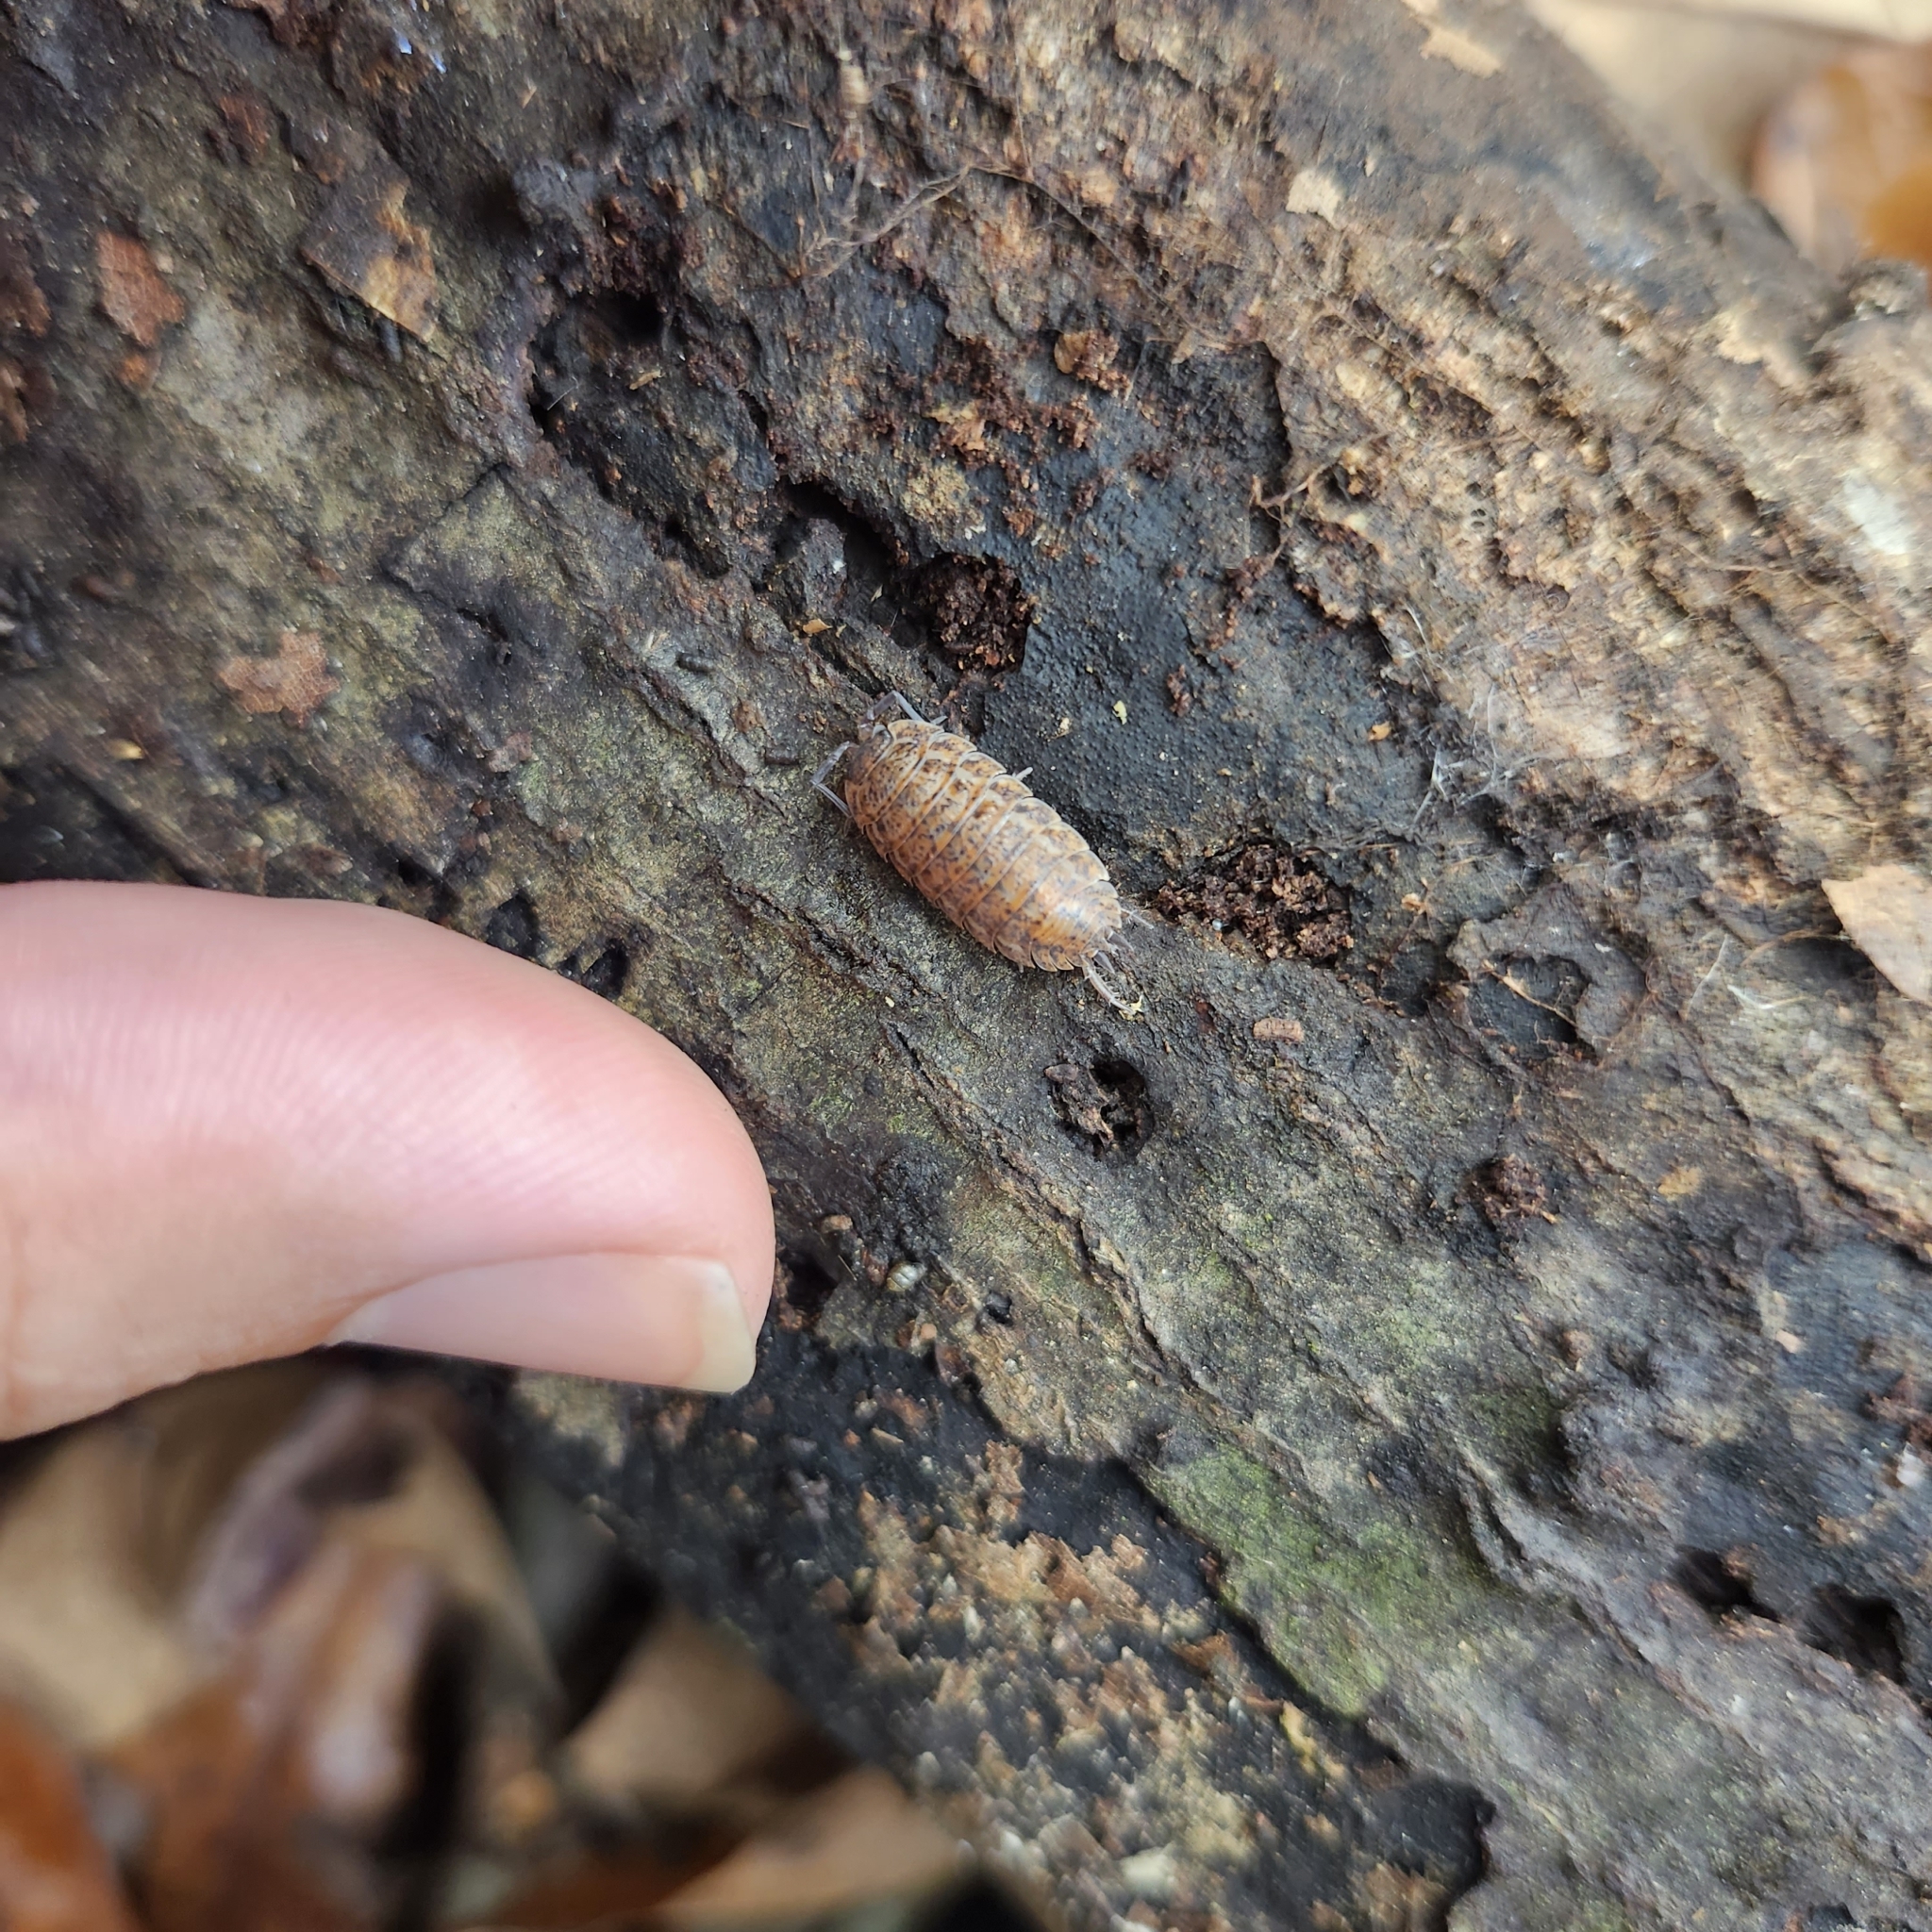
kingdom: Animalia
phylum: Arthropoda
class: Malacostraca
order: Isopoda
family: Trachelipodidae
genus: Trachelipus
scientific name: Trachelipus rathkii
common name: Isopod
